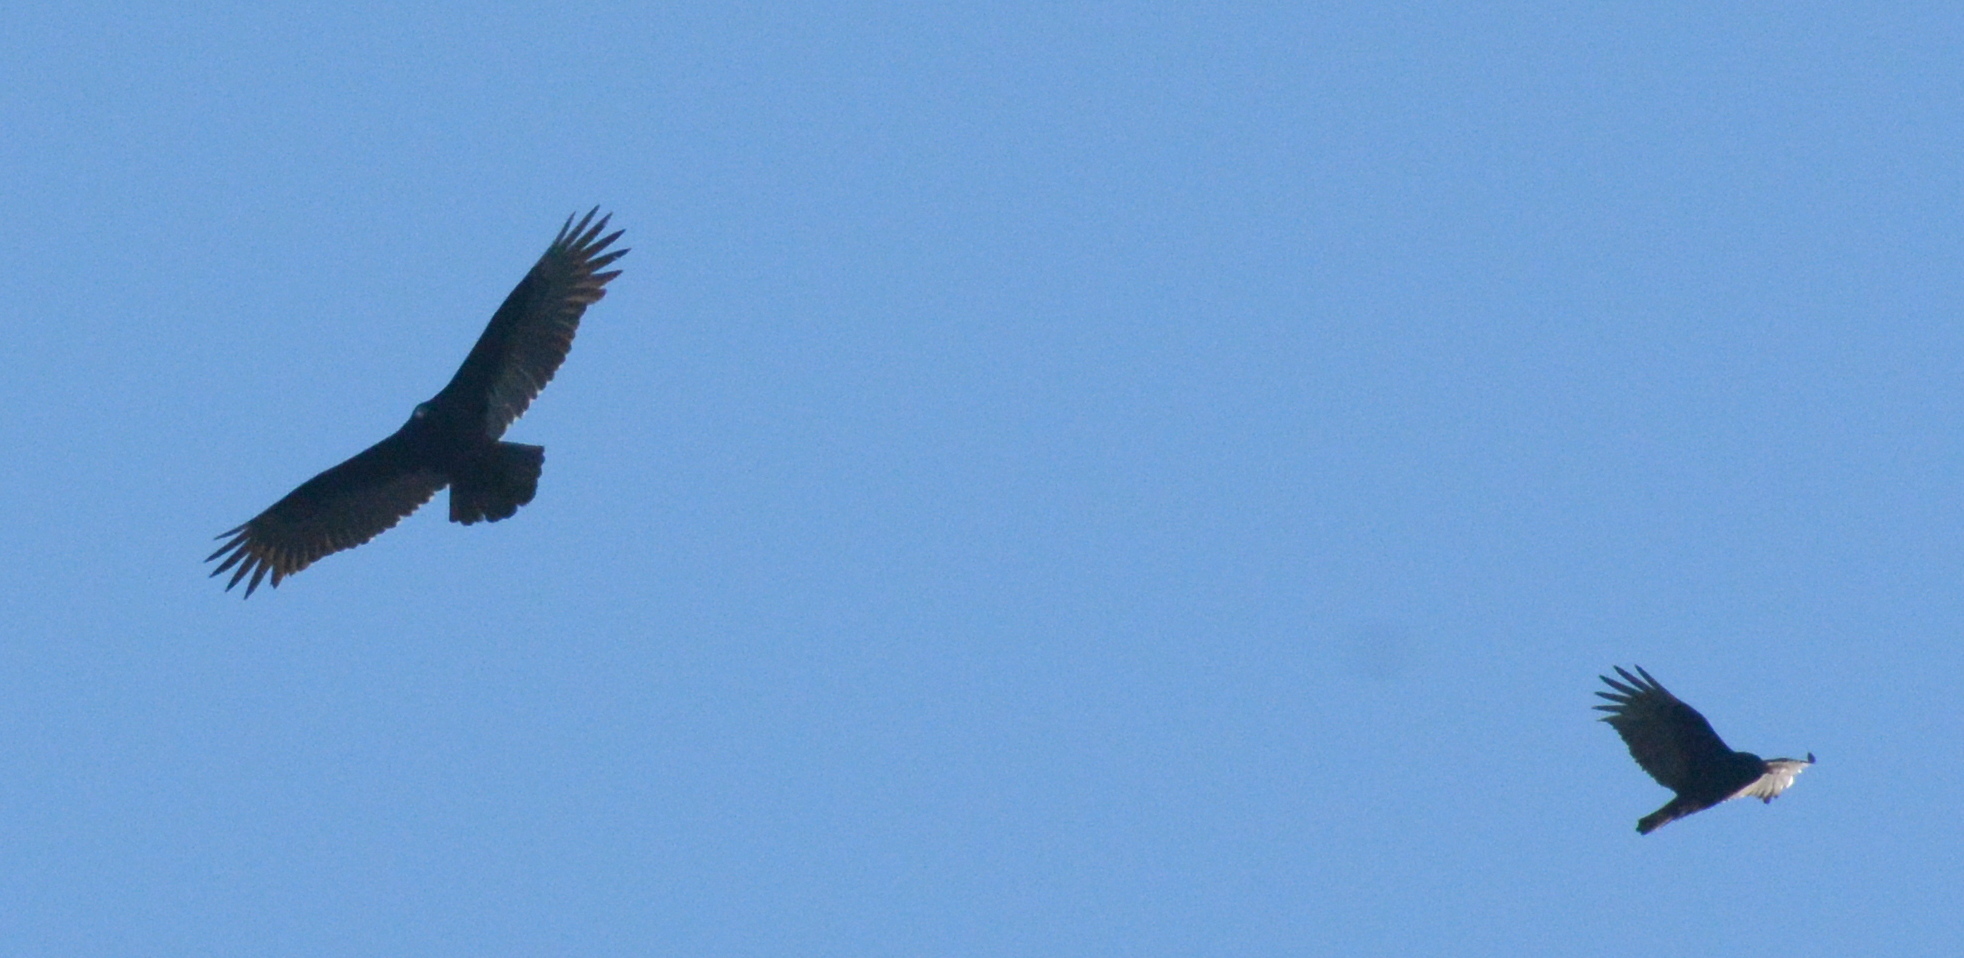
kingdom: Animalia
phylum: Chordata
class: Aves
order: Accipitriformes
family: Cathartidae
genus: Cathartes
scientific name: Cathartes aura
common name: Turkey vulture
